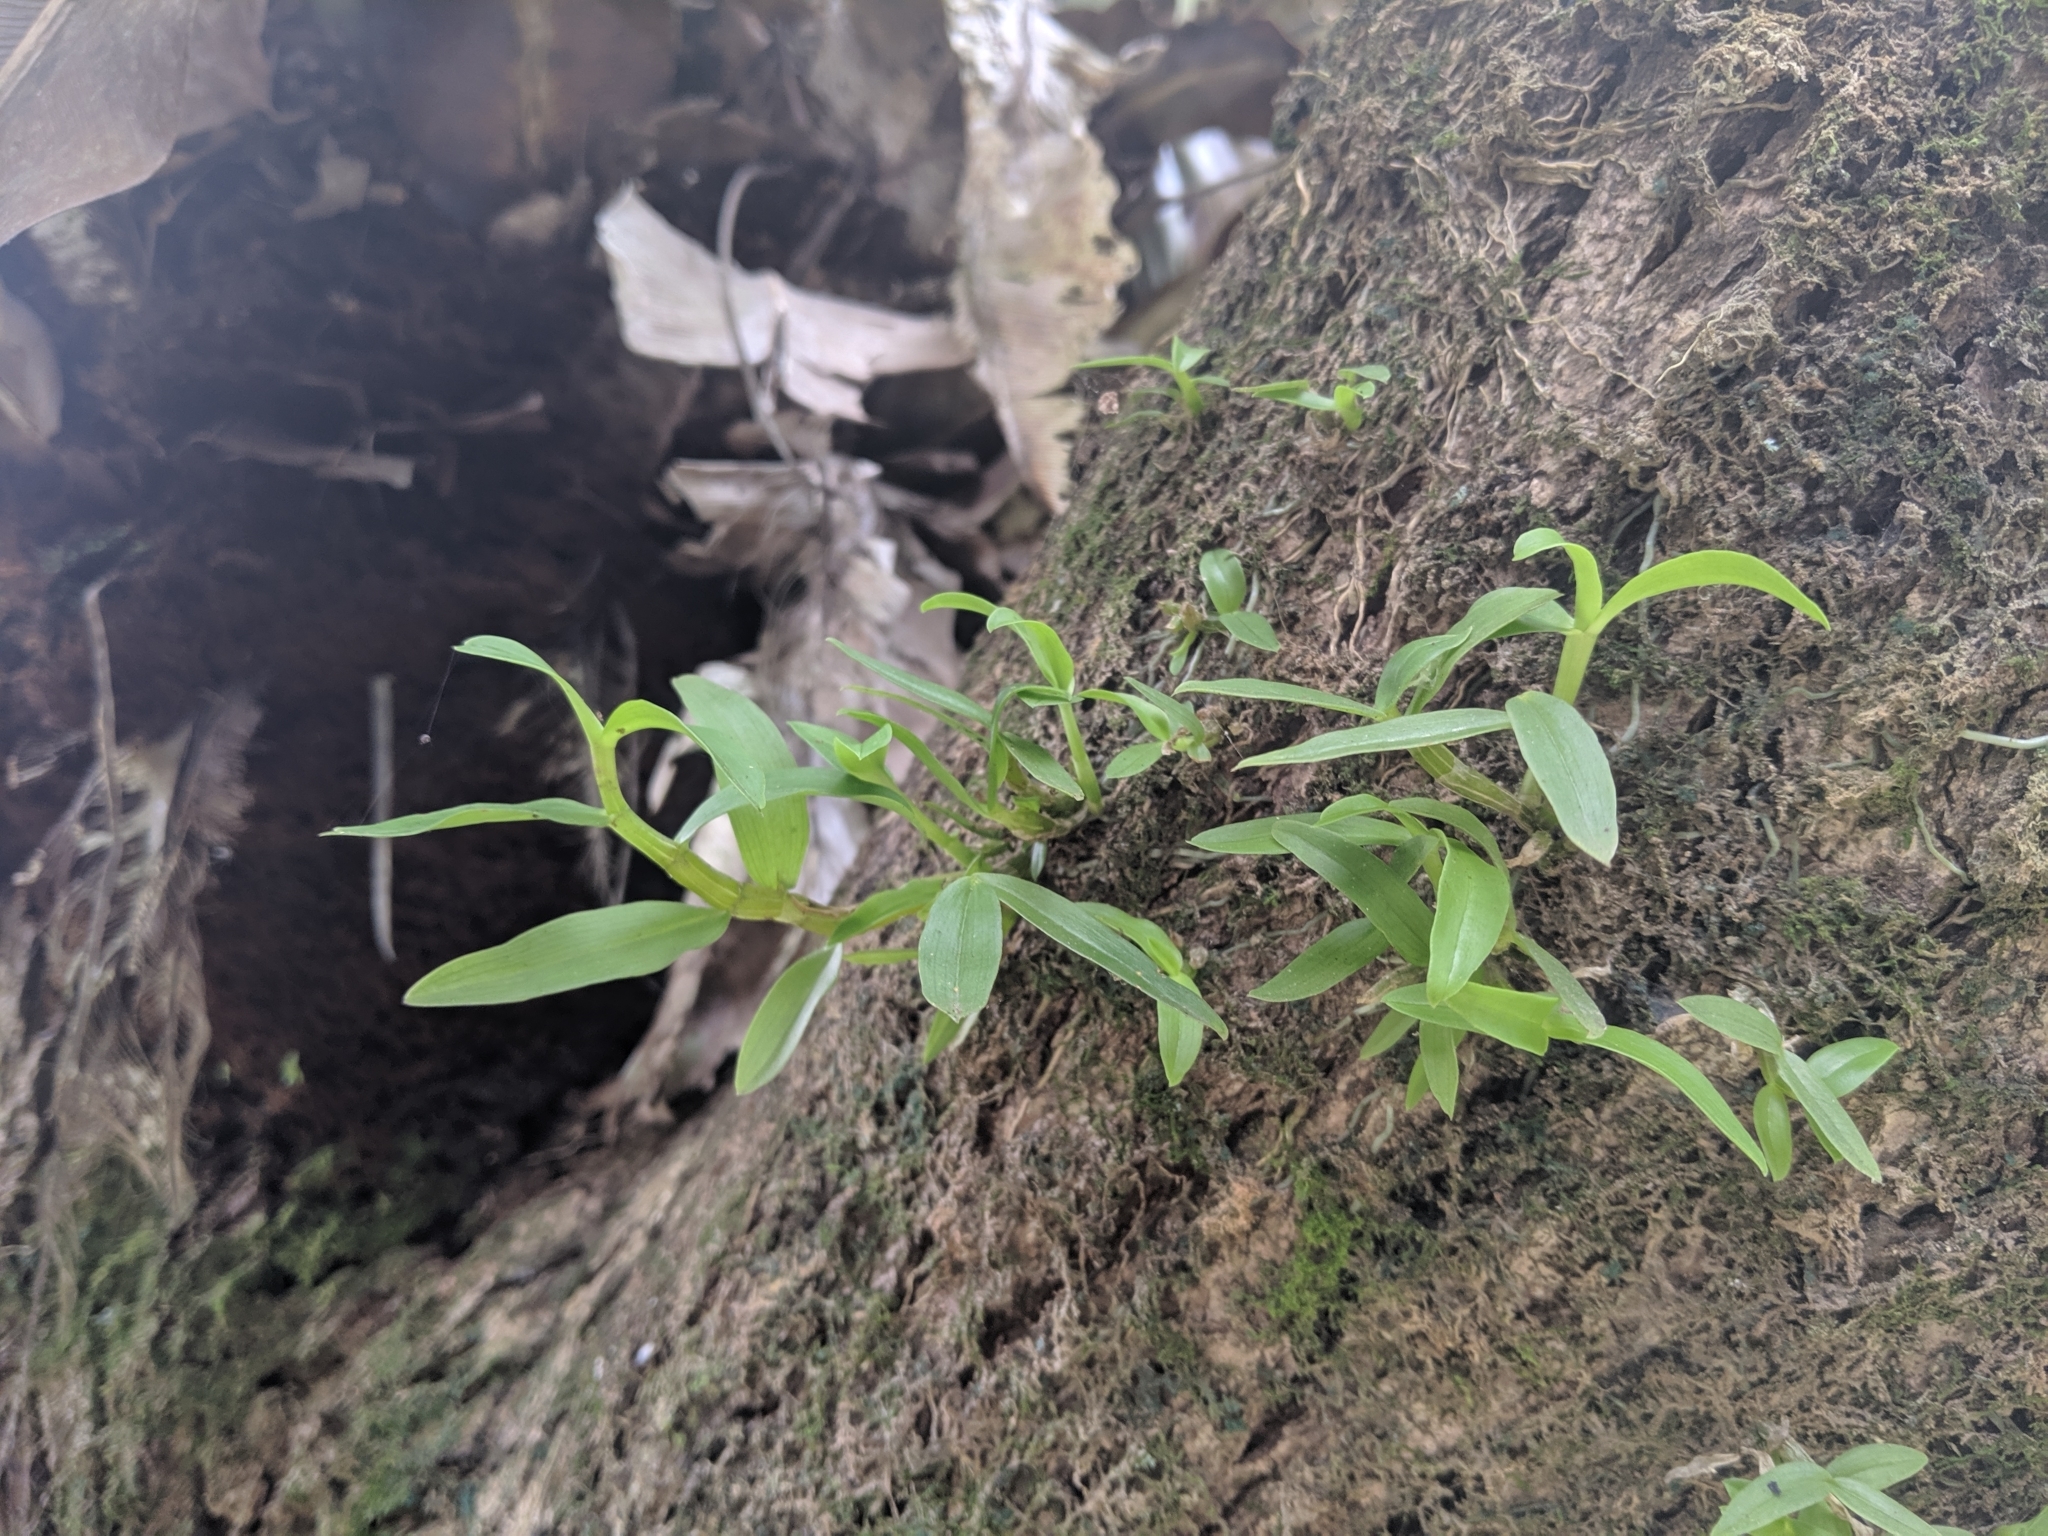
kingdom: Plantae
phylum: Tracheophyta
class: Liliopsida
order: Asparagales
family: Orchidaceae
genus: Dendrobium
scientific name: Dendrobium officinale
